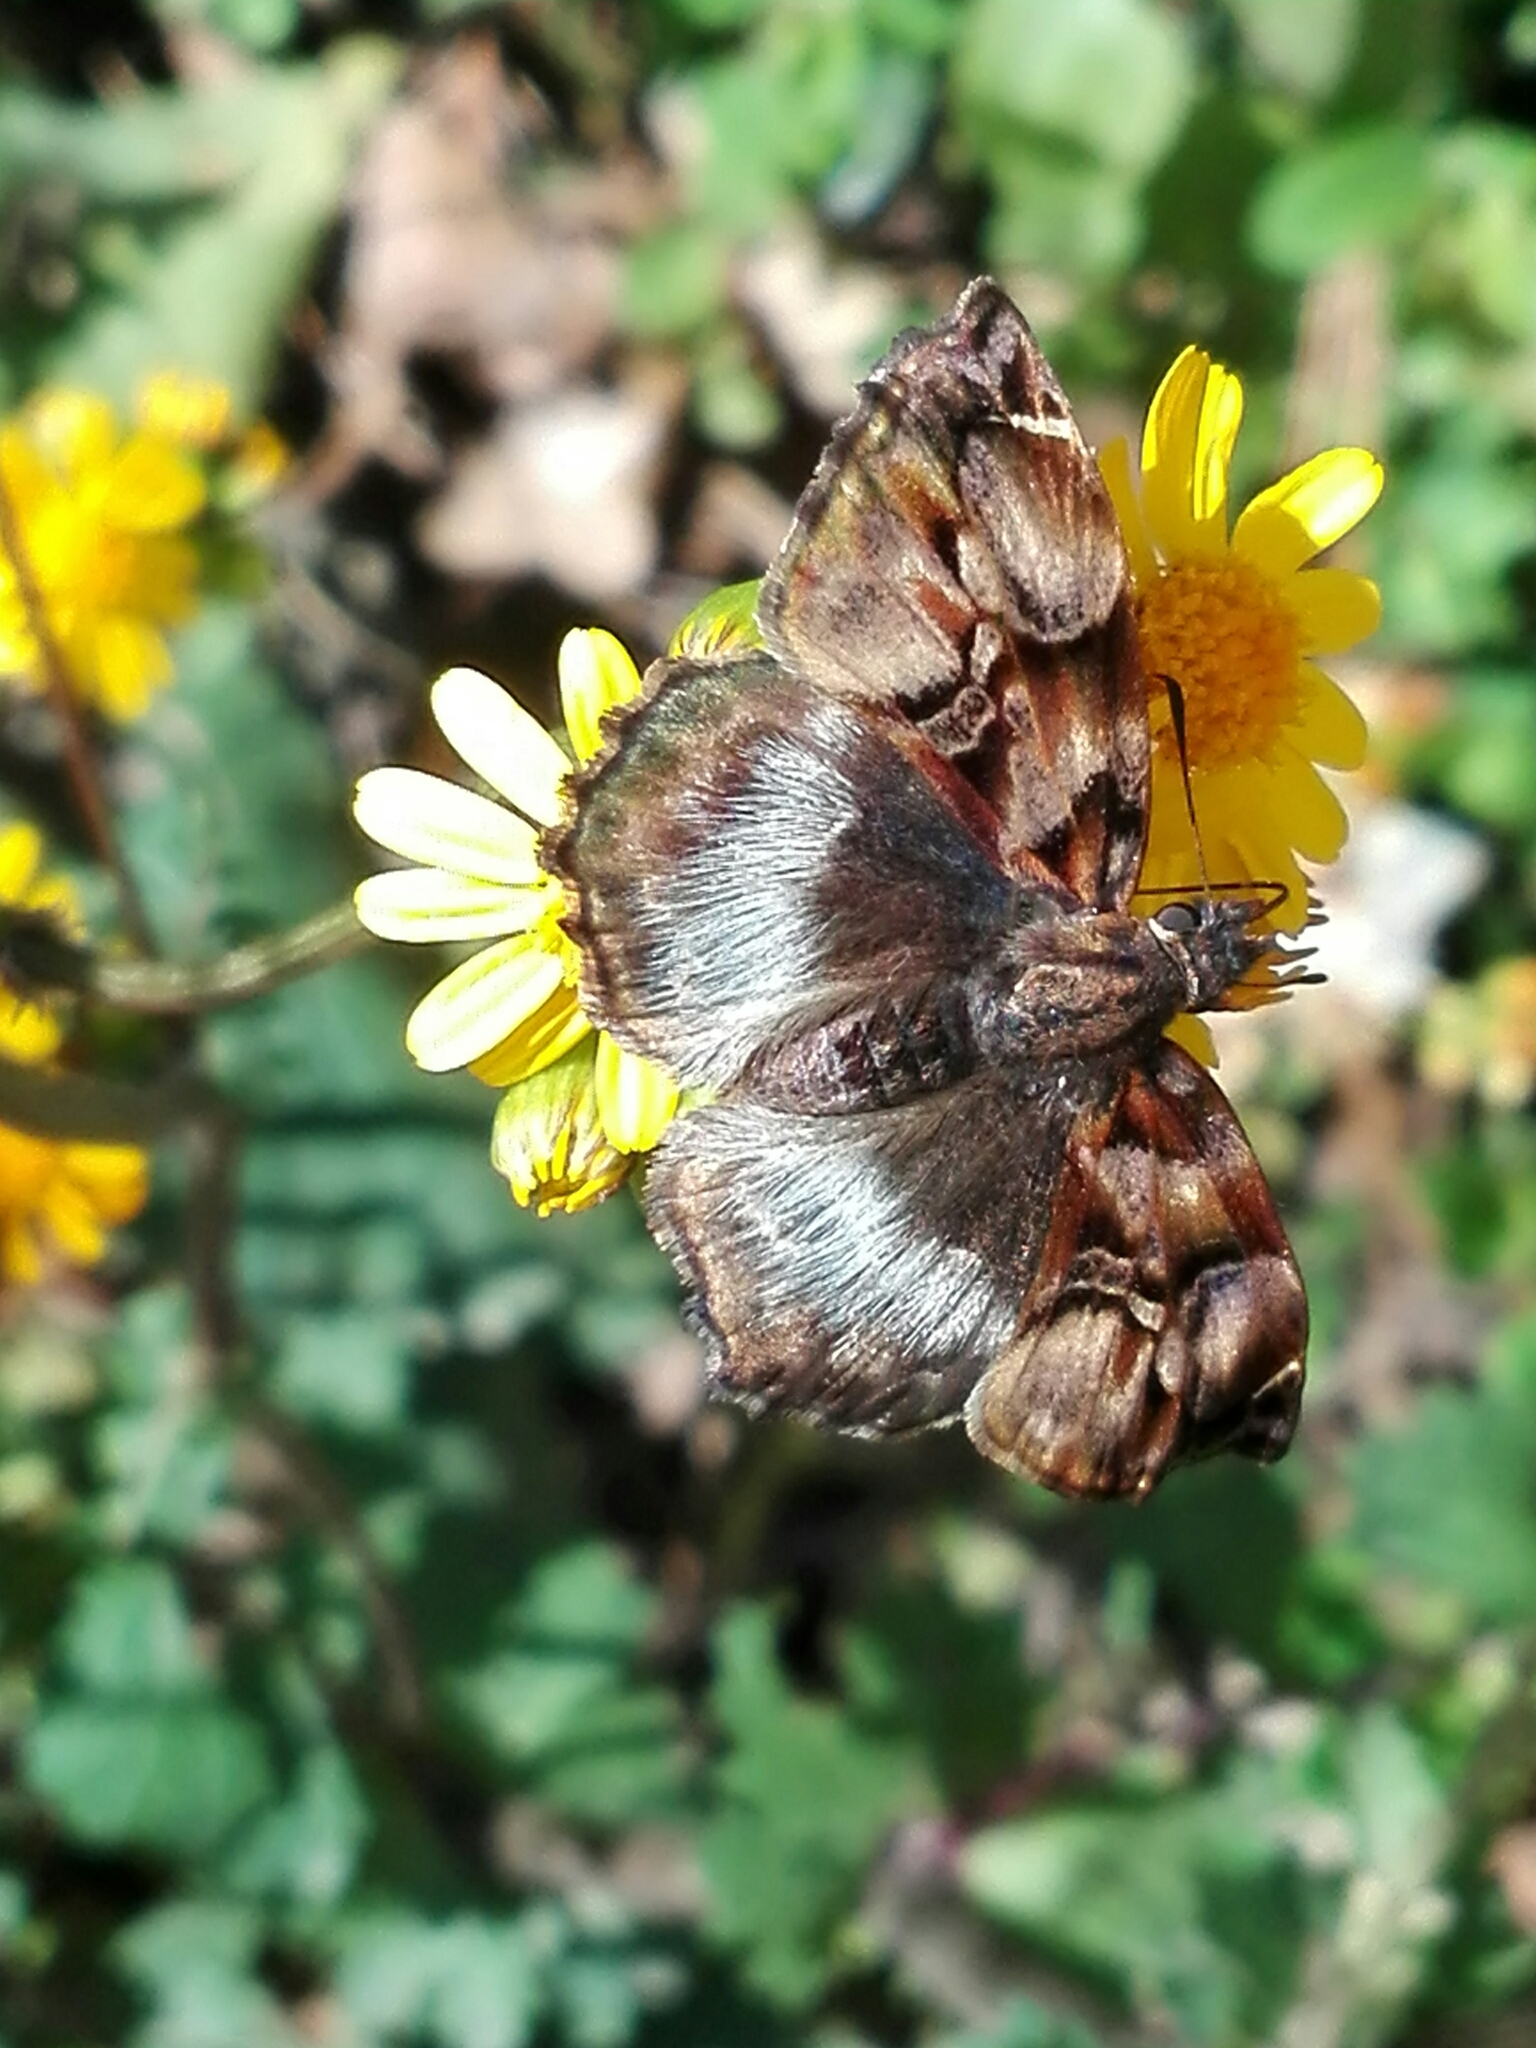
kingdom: Animalia
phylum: Arthropoda
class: Insecta
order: Lepidoptera
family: Hesperiidae
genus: Noctuana
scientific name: Noctuana lactifera
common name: Cryptic skipper
